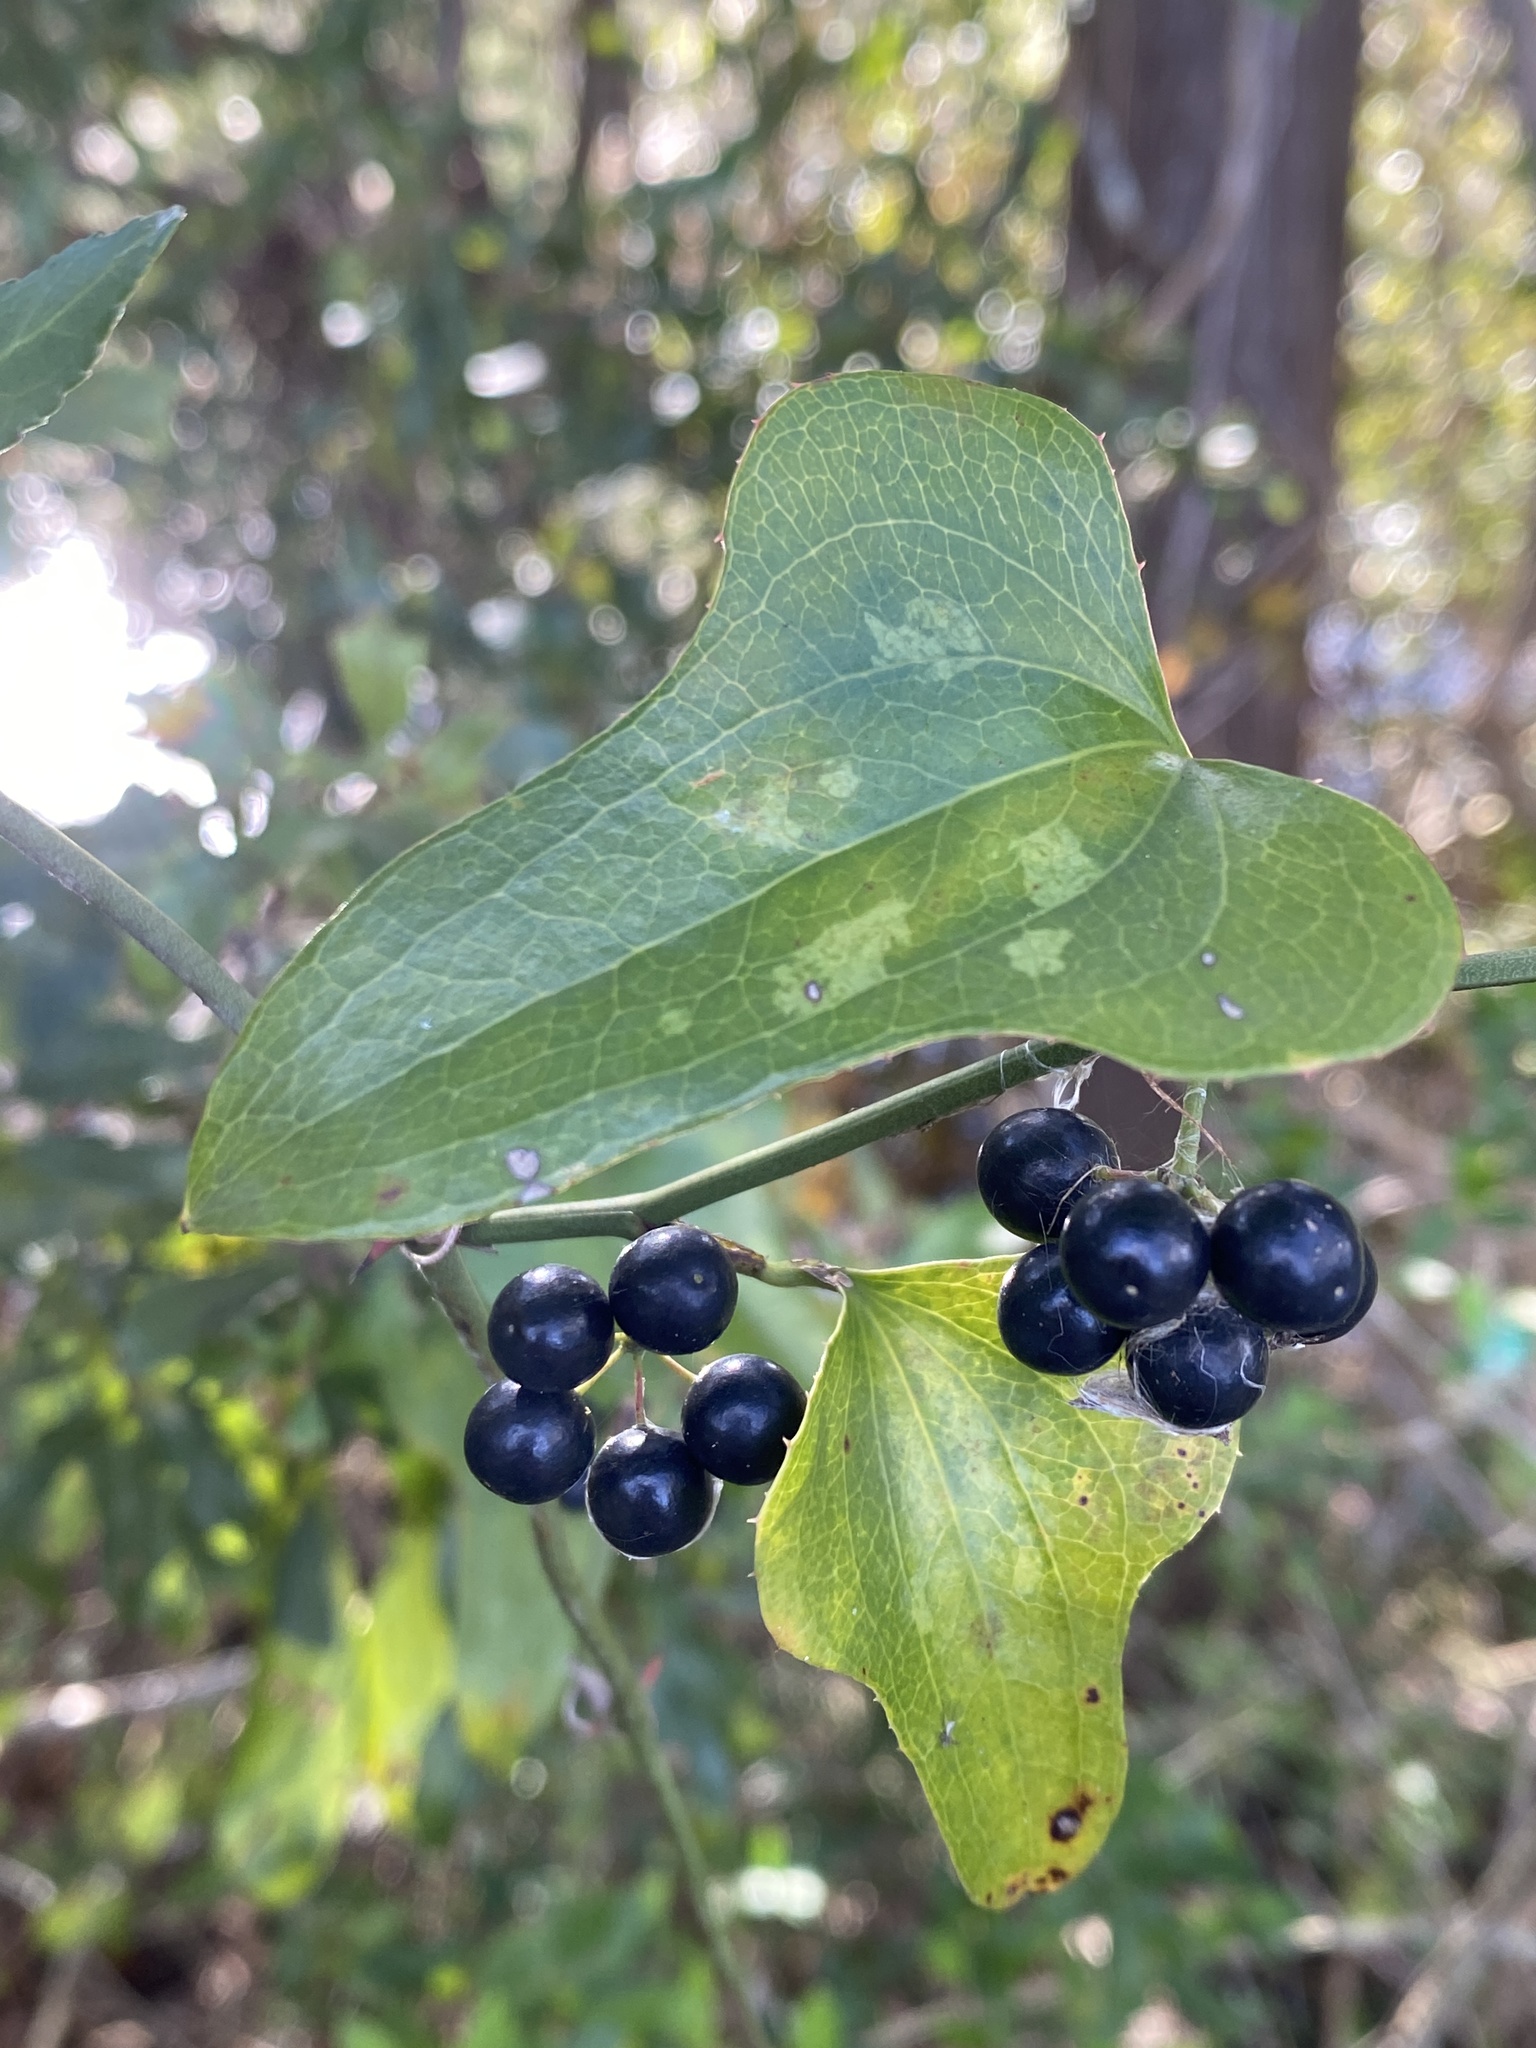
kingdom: Plantae
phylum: Tracheophyta
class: Liliopsida
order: Liliales
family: Smilacaceae
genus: Smilax
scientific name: Smilax bona-nox
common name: Catbrier
